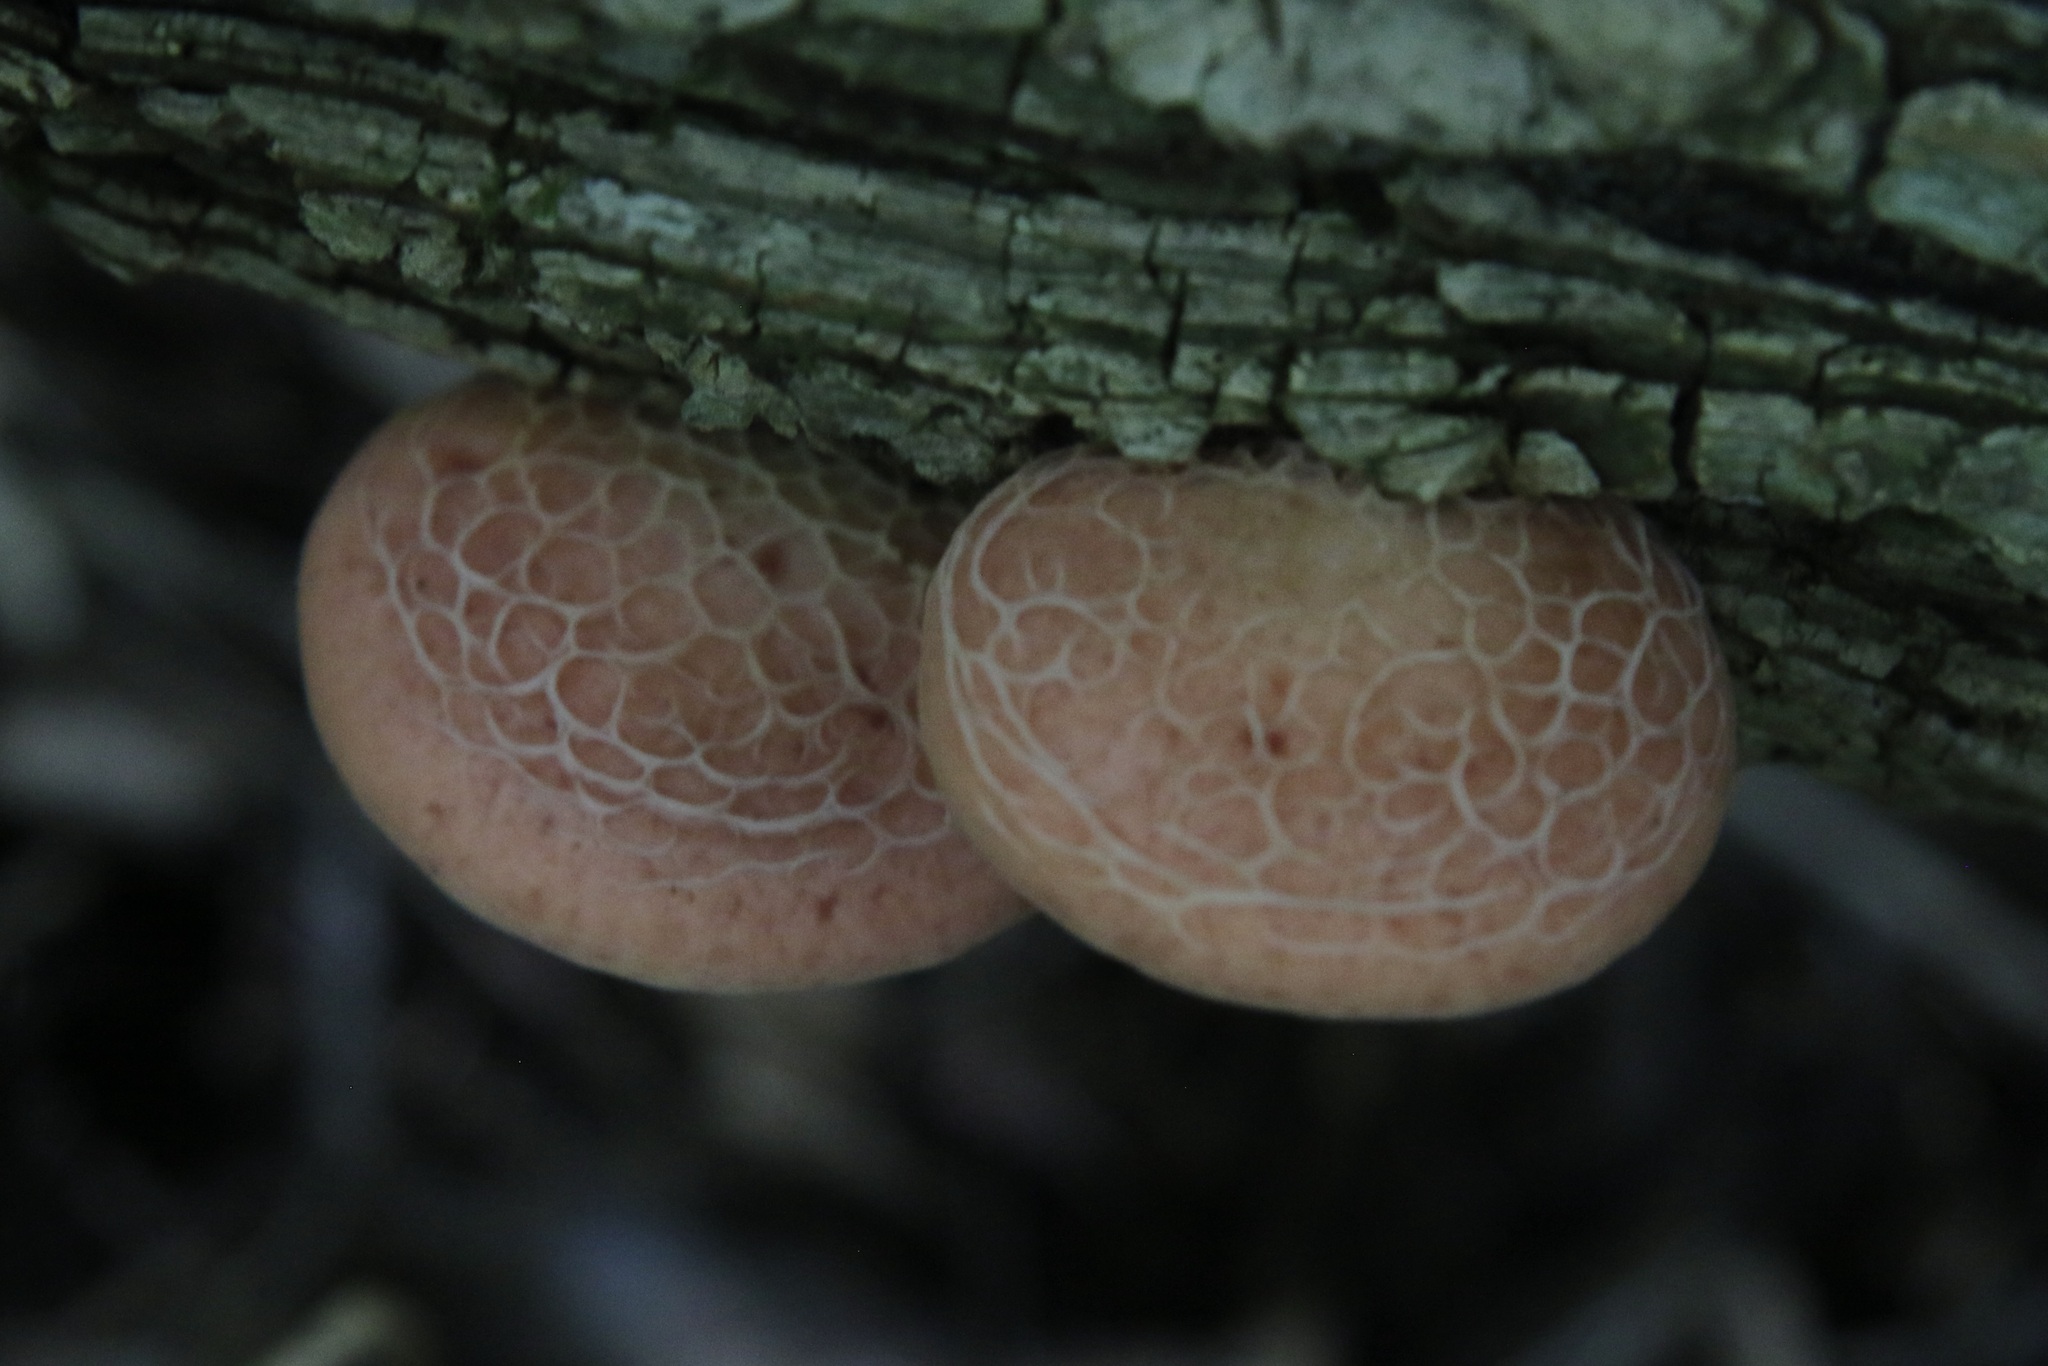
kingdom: Fungi
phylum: Basidiomycota
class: Agaricomycetes
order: Agaricales
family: Physalacriaceae
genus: Rhodotus
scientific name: Rhodotus palmatus
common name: Wrinkled peach
